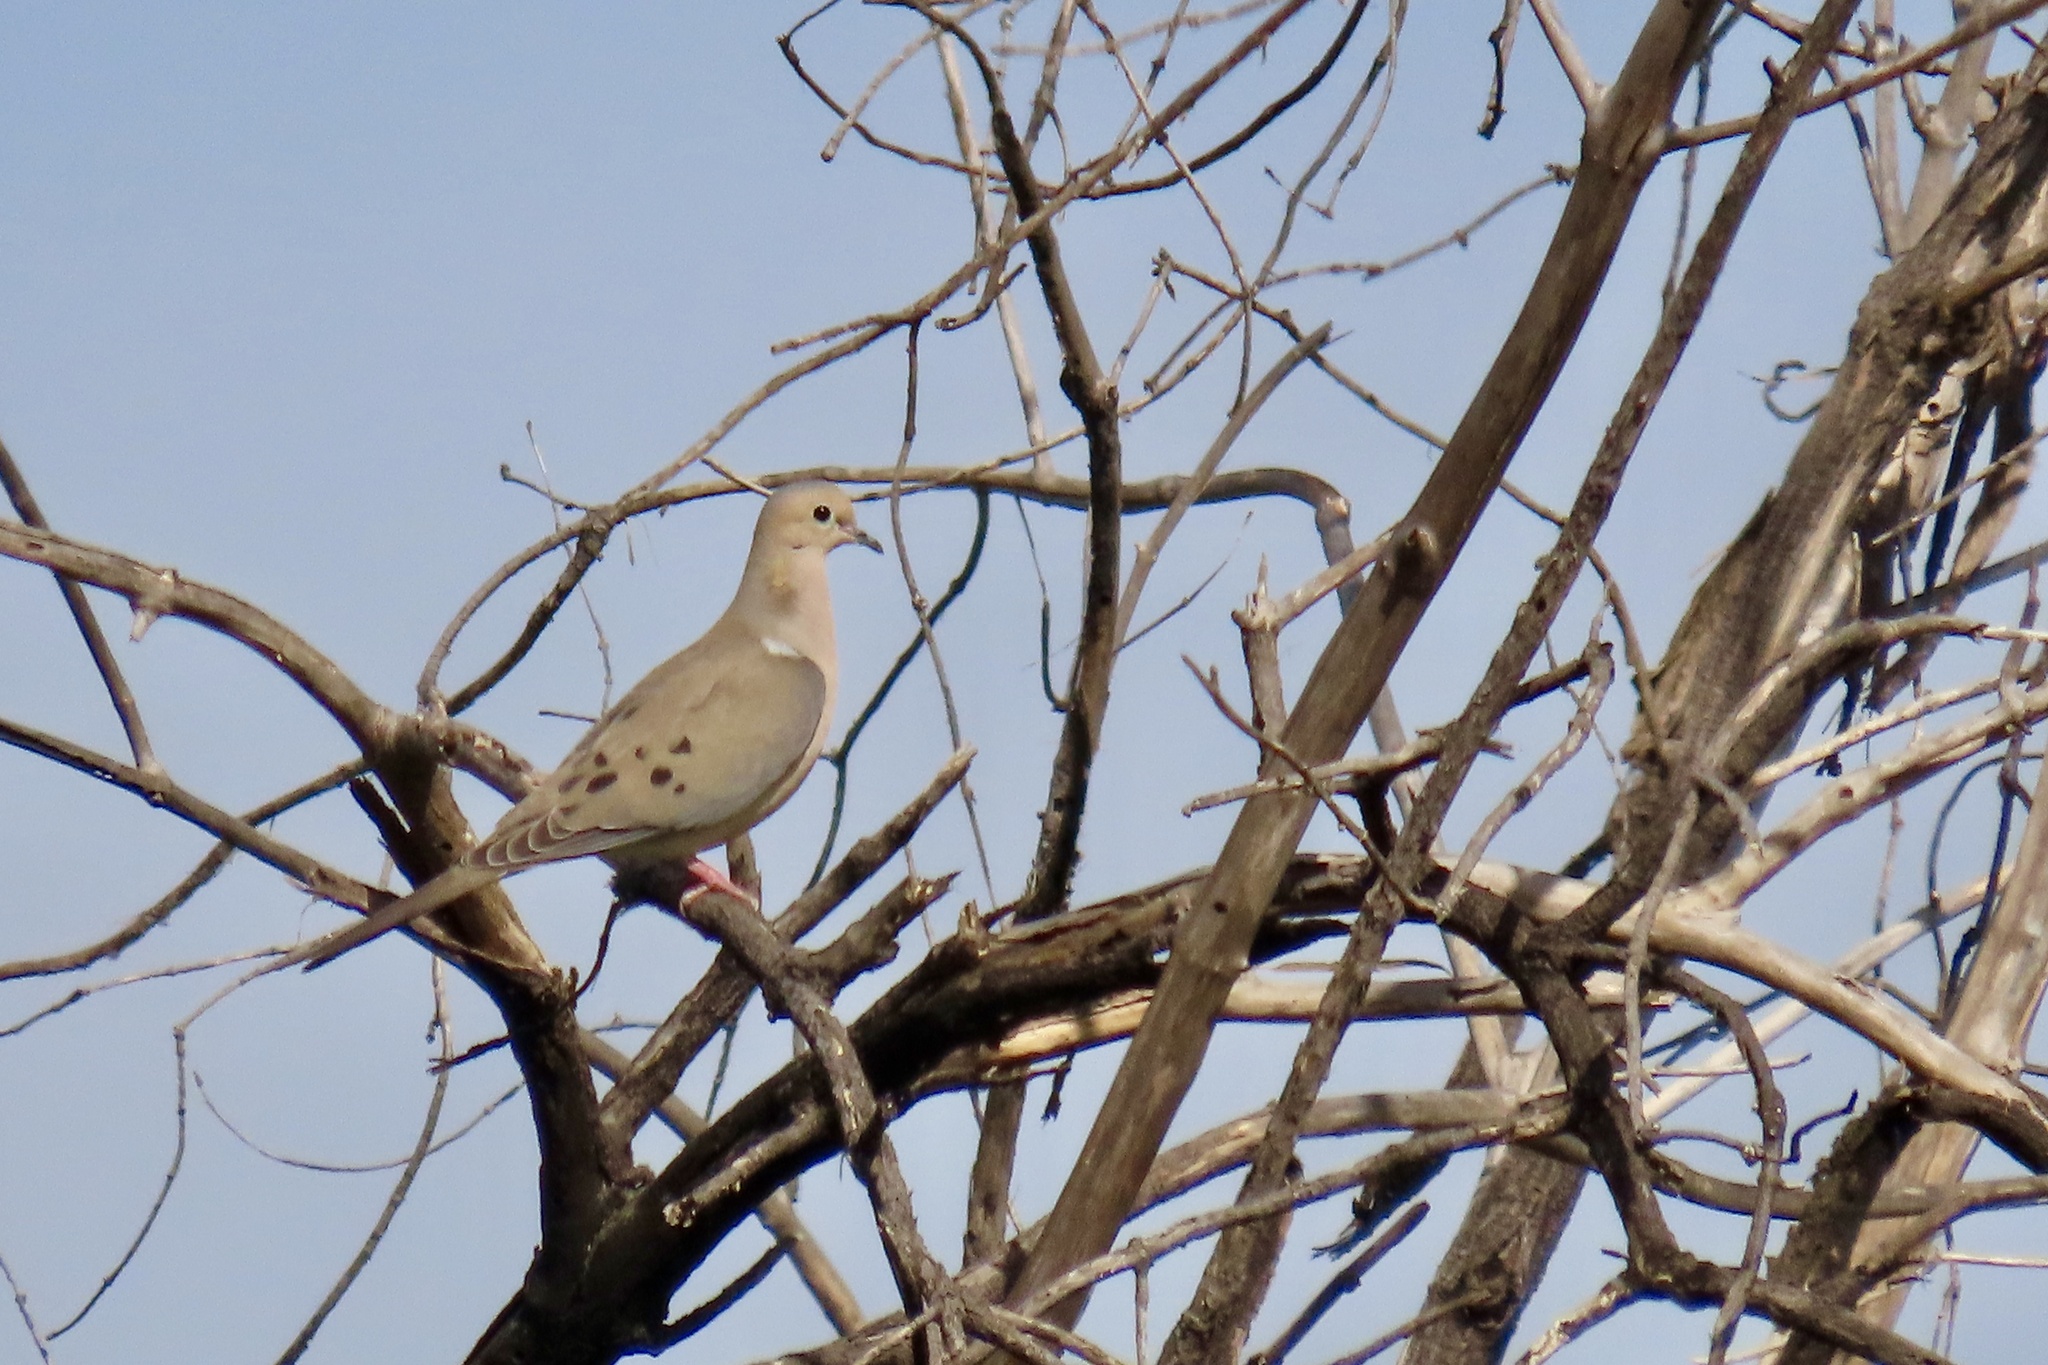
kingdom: Animalia
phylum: Chordata
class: Aves
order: Columbiformes
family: Columbidae
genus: Zenaida
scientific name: Zenaida macroura
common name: Mourning dove
